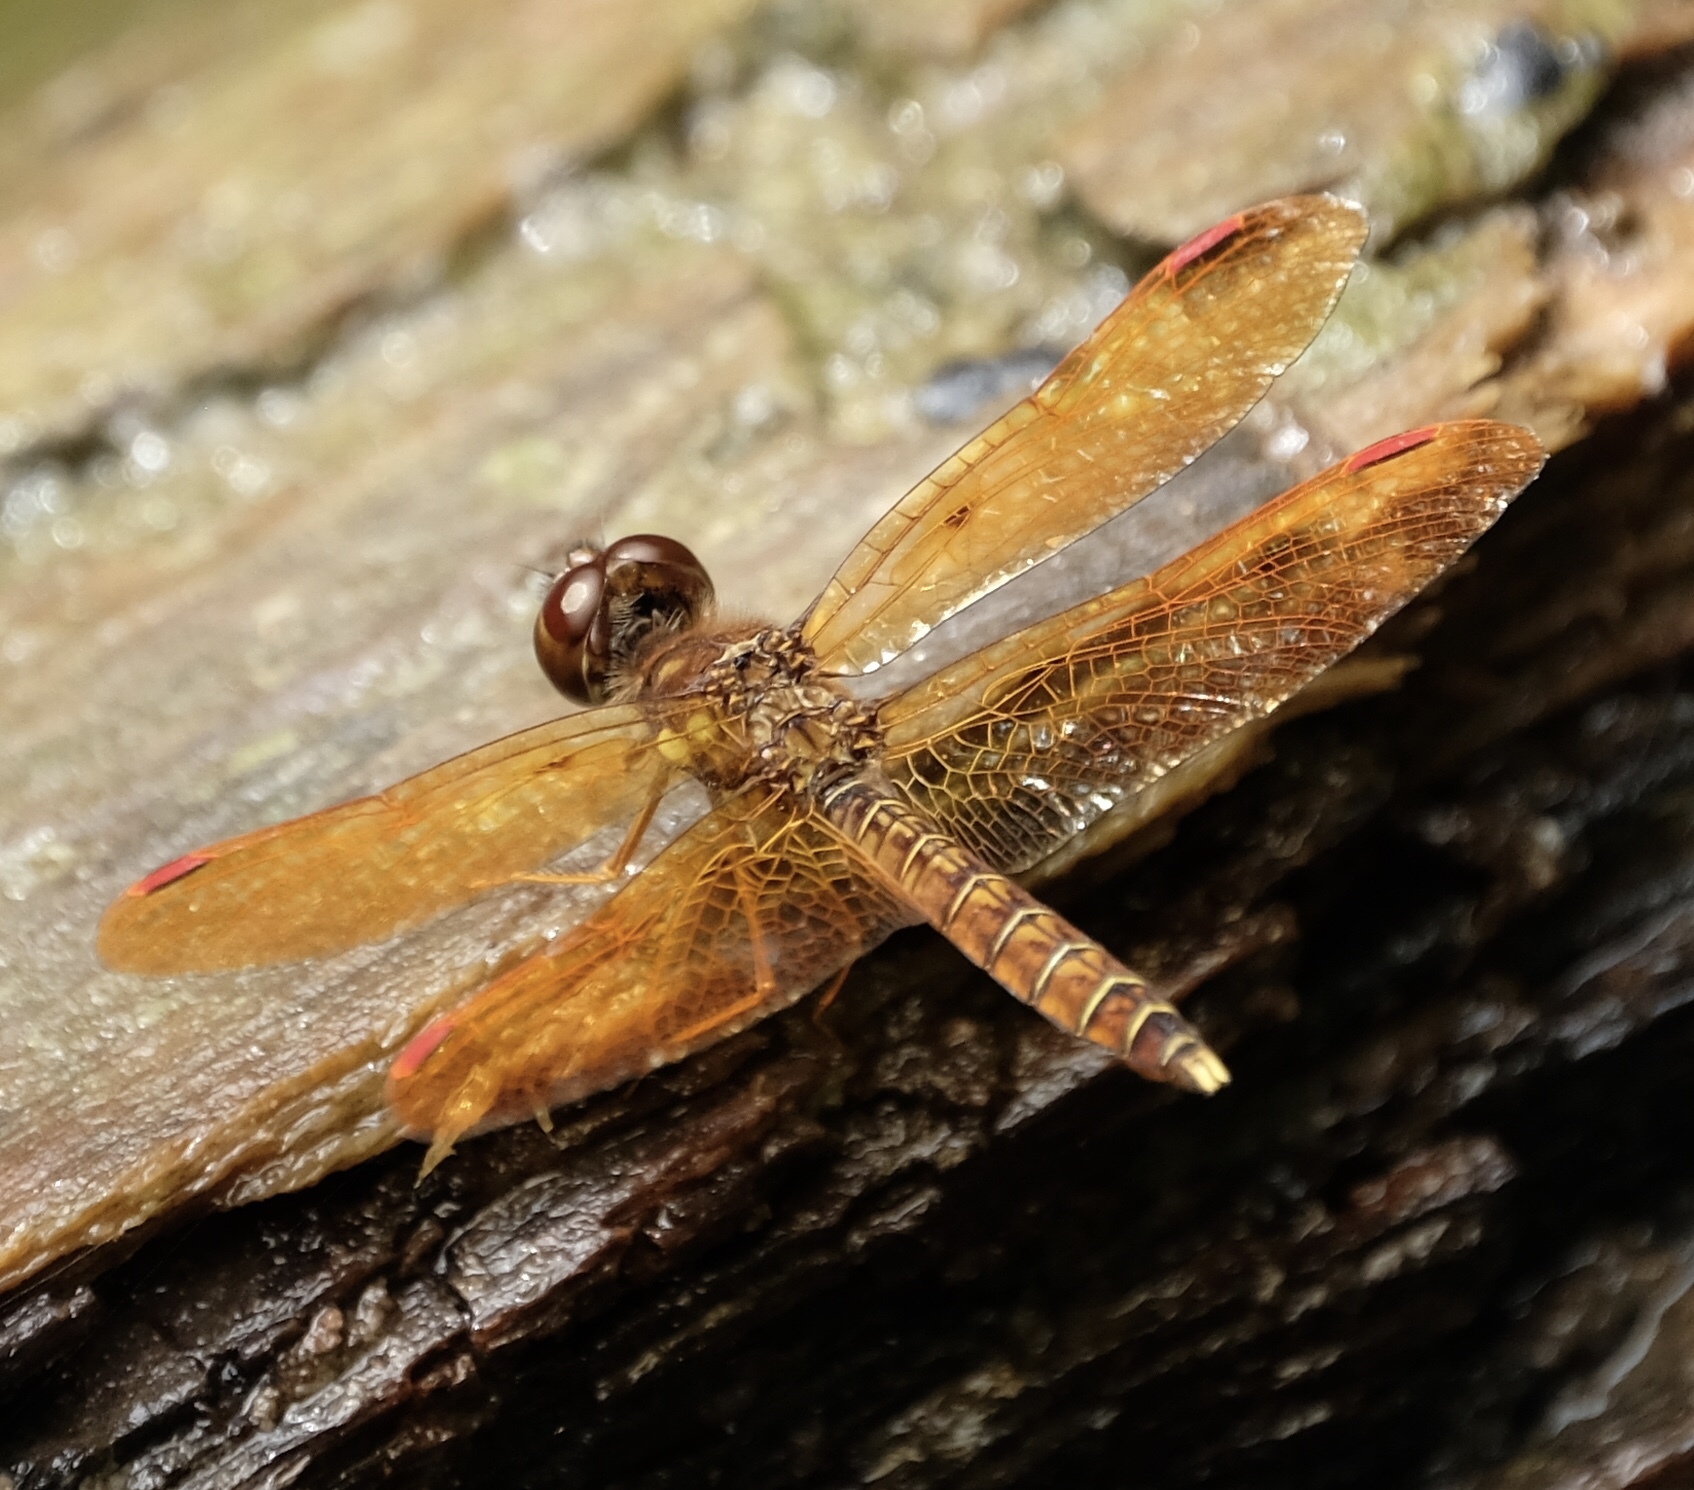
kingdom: Animalia
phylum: Arthropoda
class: Insecta
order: Odonata
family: Libellulidae
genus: Perithemis
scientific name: Perithemis tenera
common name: Eastern amberwing
